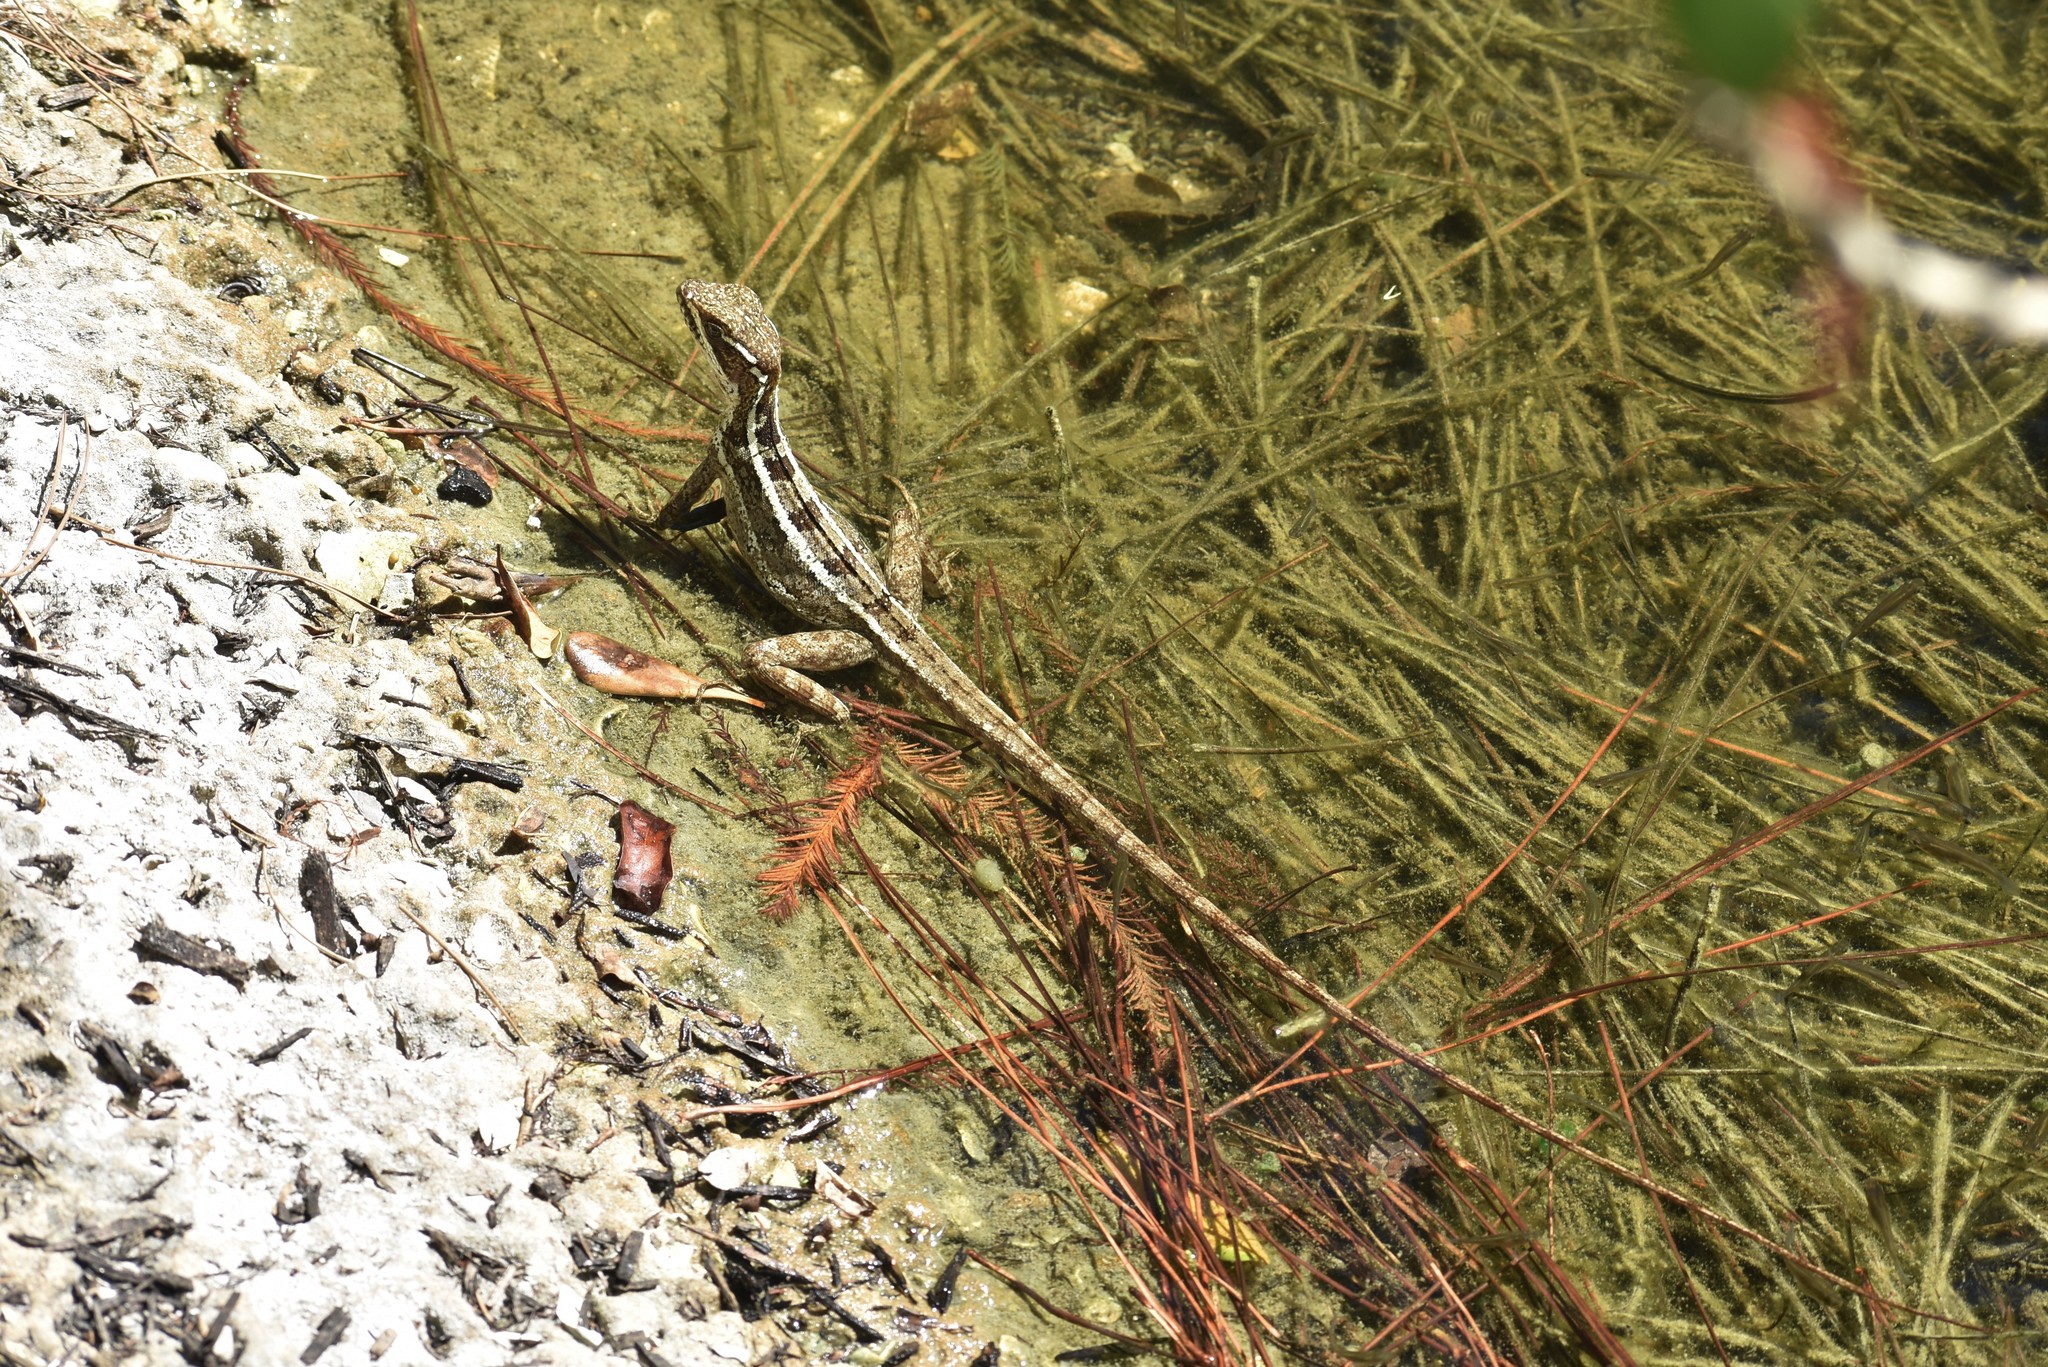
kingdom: Animalia
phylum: Chordata
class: Squamata
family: Corytophanidae
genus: Basiliscus
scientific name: Basiliscus vittatus
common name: Brown basilisk
